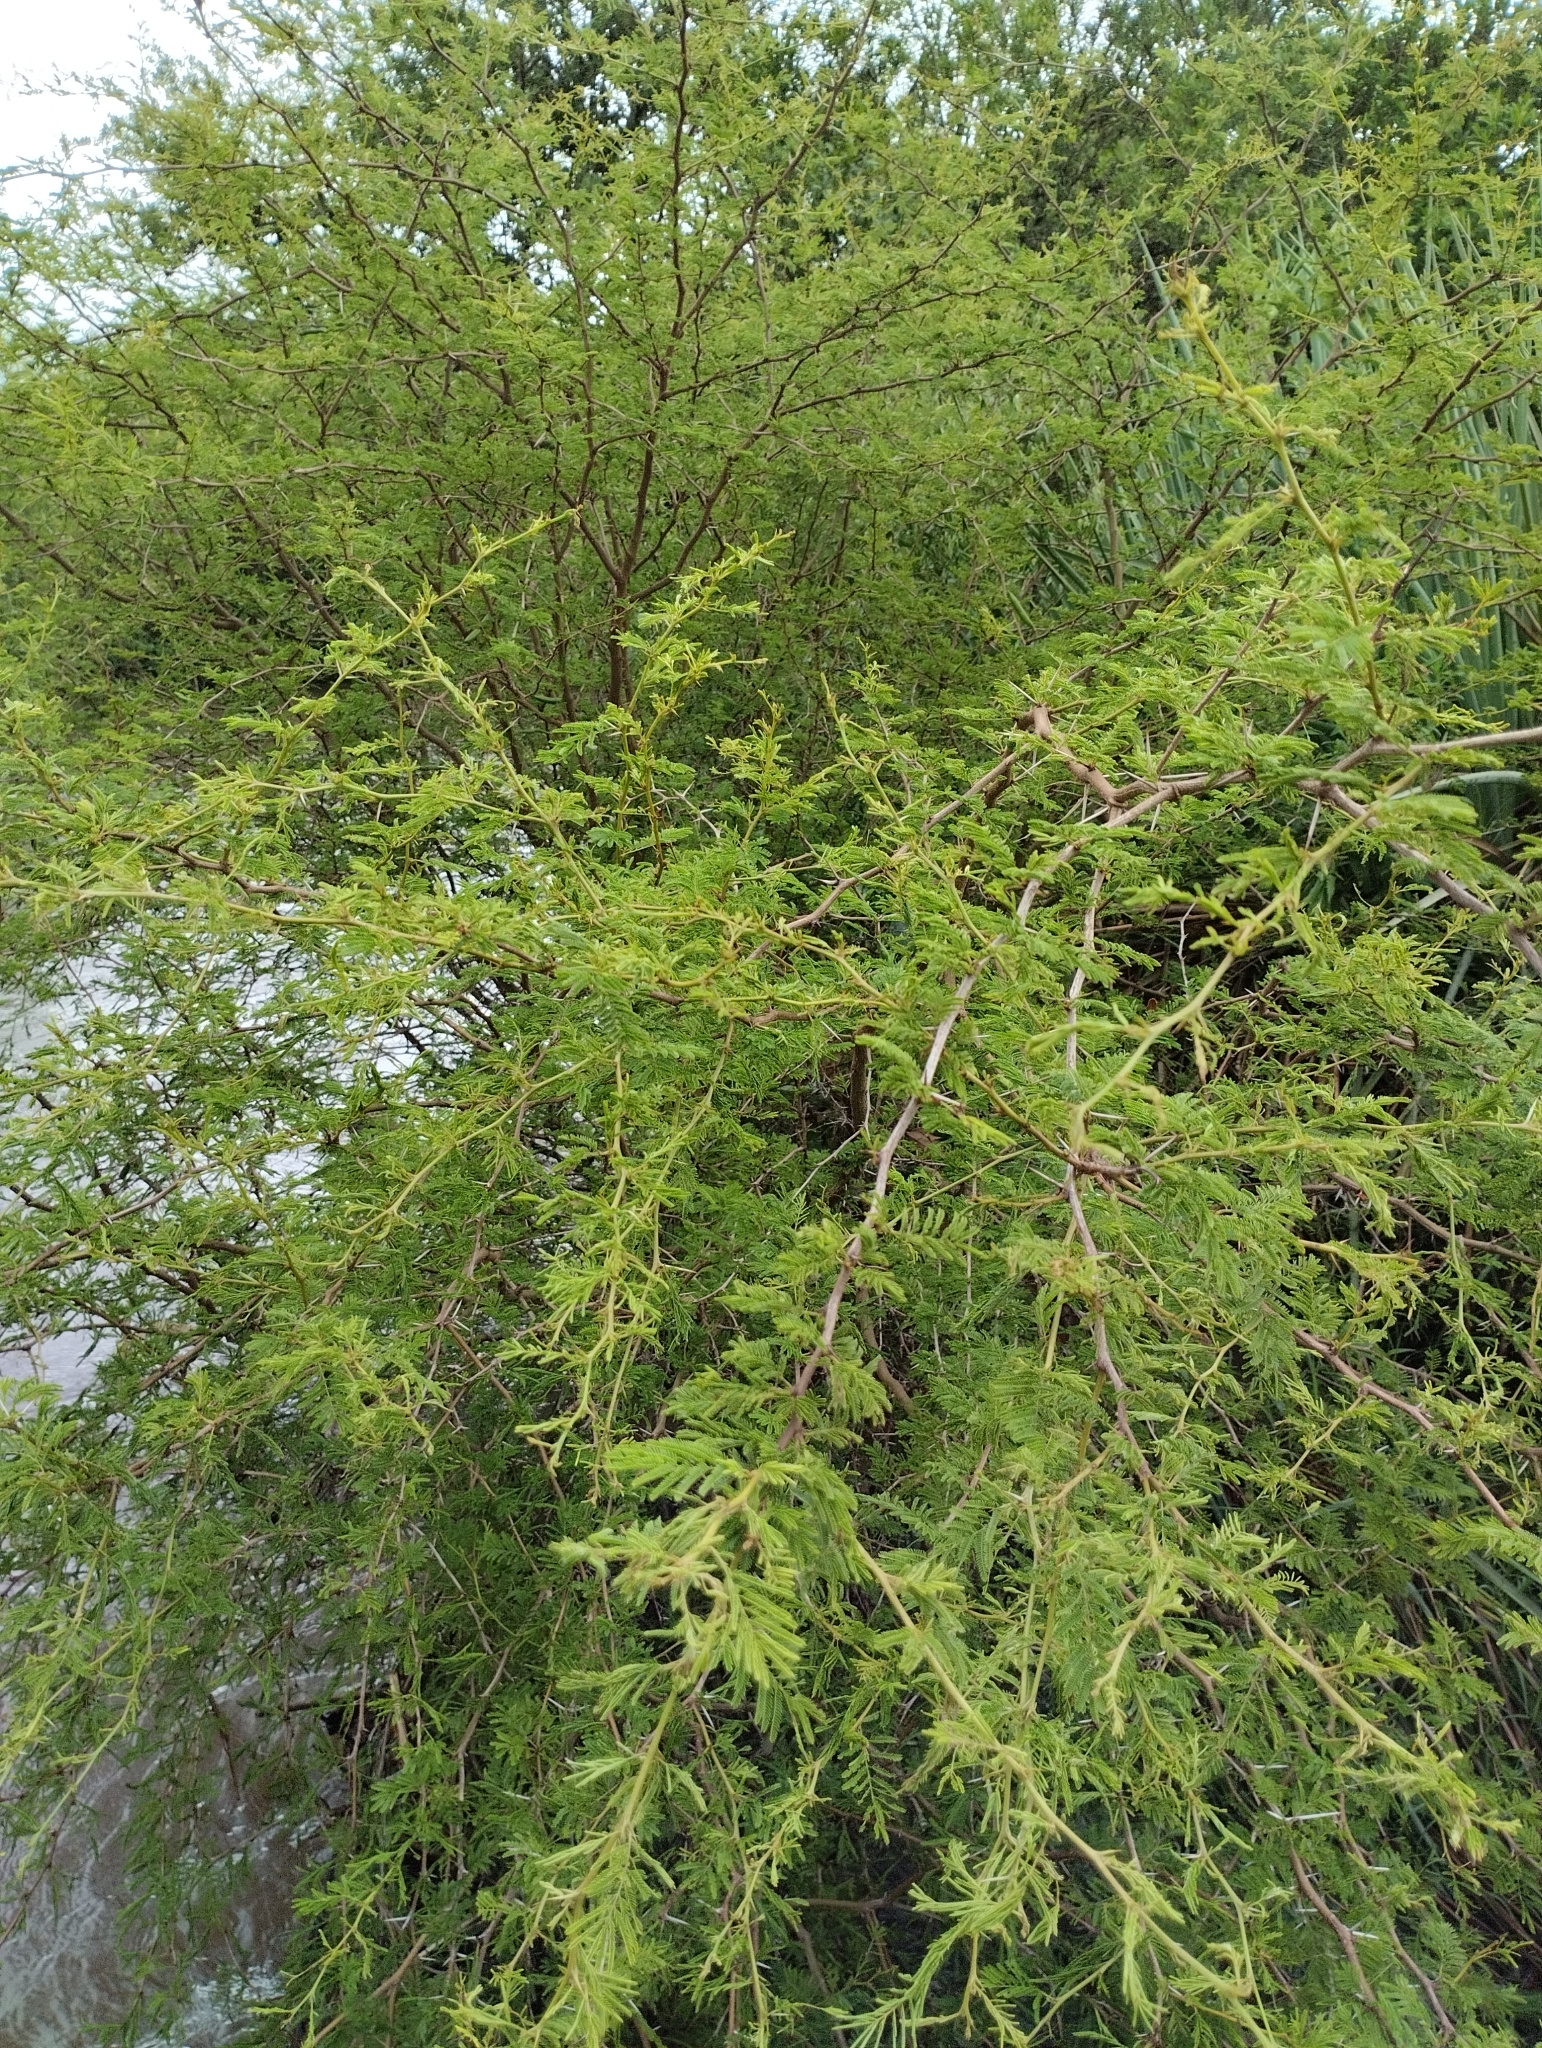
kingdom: Plantae
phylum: Tracheophyta
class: Magnoliopsida
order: Fabales
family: Fabaceae
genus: Vachellia
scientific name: Vachellia caven
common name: Roman cassie
